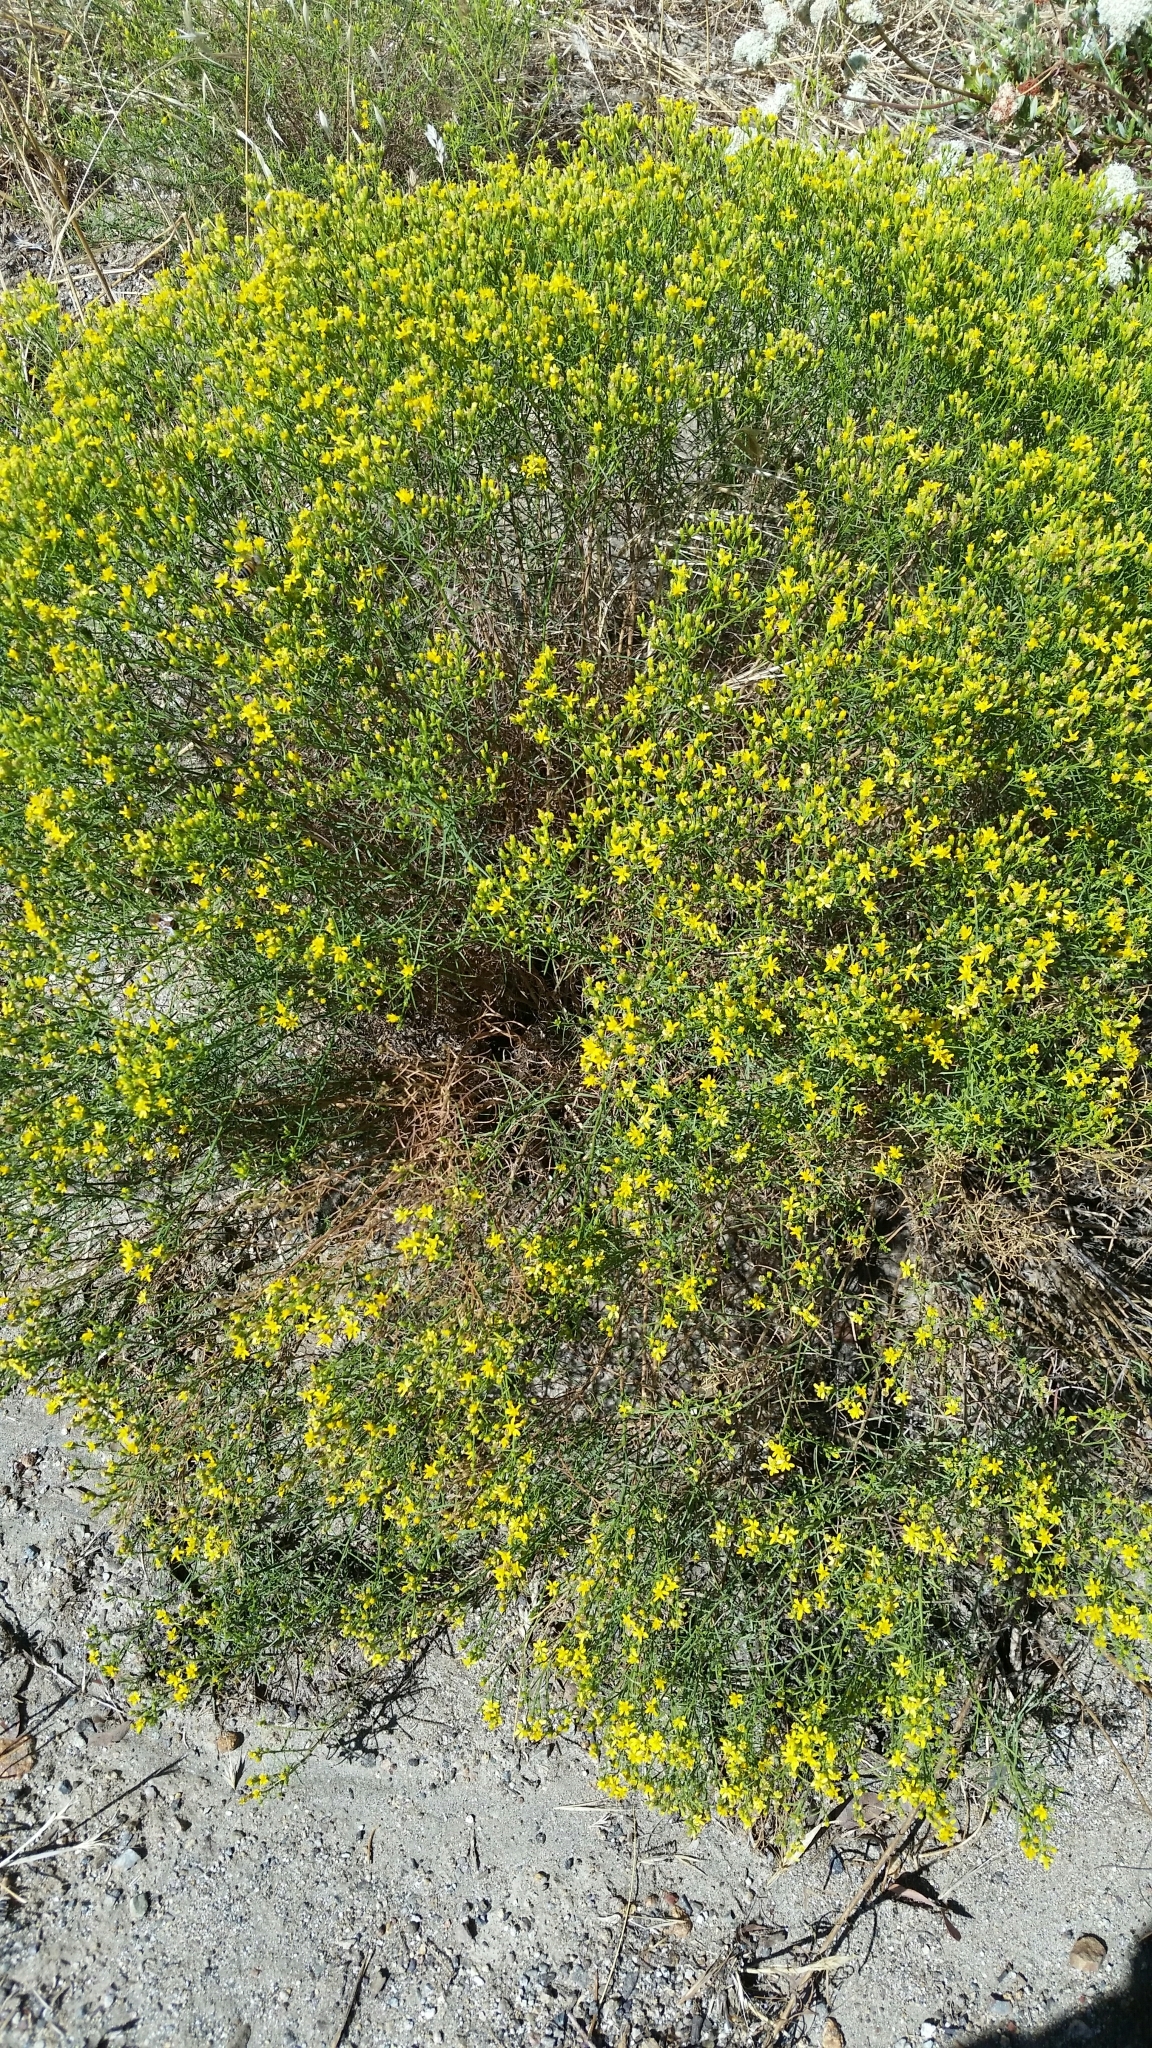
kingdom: Plantae
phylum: Tracheophyta
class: Magnoliopsida
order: Asterales
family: Asteraceae
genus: Gutierrezia
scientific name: Gutierrezia sarothrae
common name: Broom snakeweed
